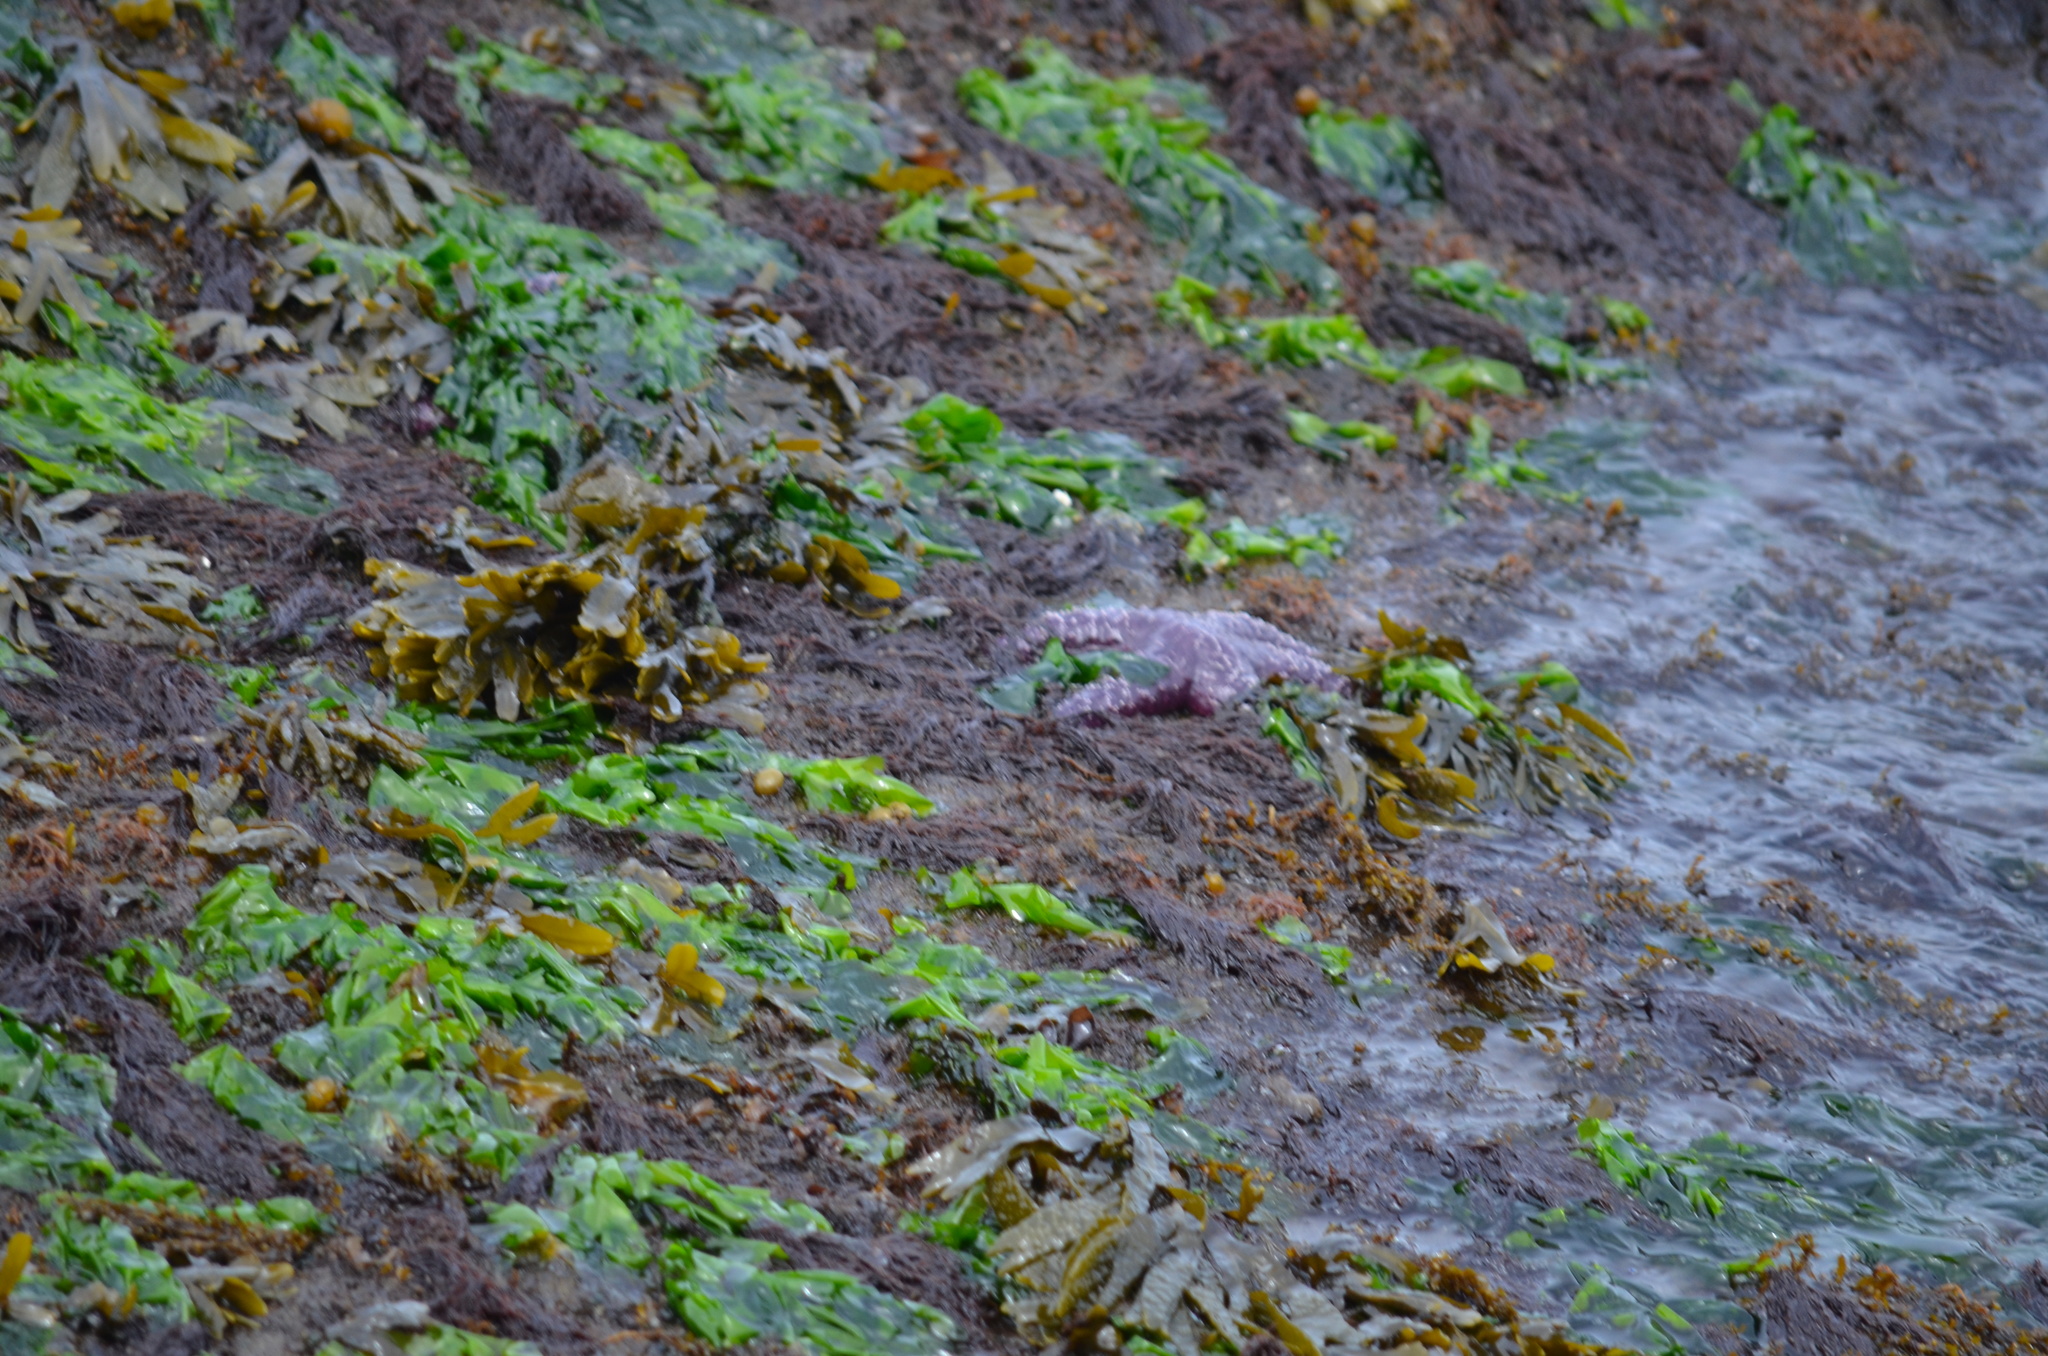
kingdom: Animalia
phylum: Echinodermata
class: Asteroidea
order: Forcipulatida
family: Asteriidae
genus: Pisaster
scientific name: Pisaster ochraceus
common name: Ochre stars
